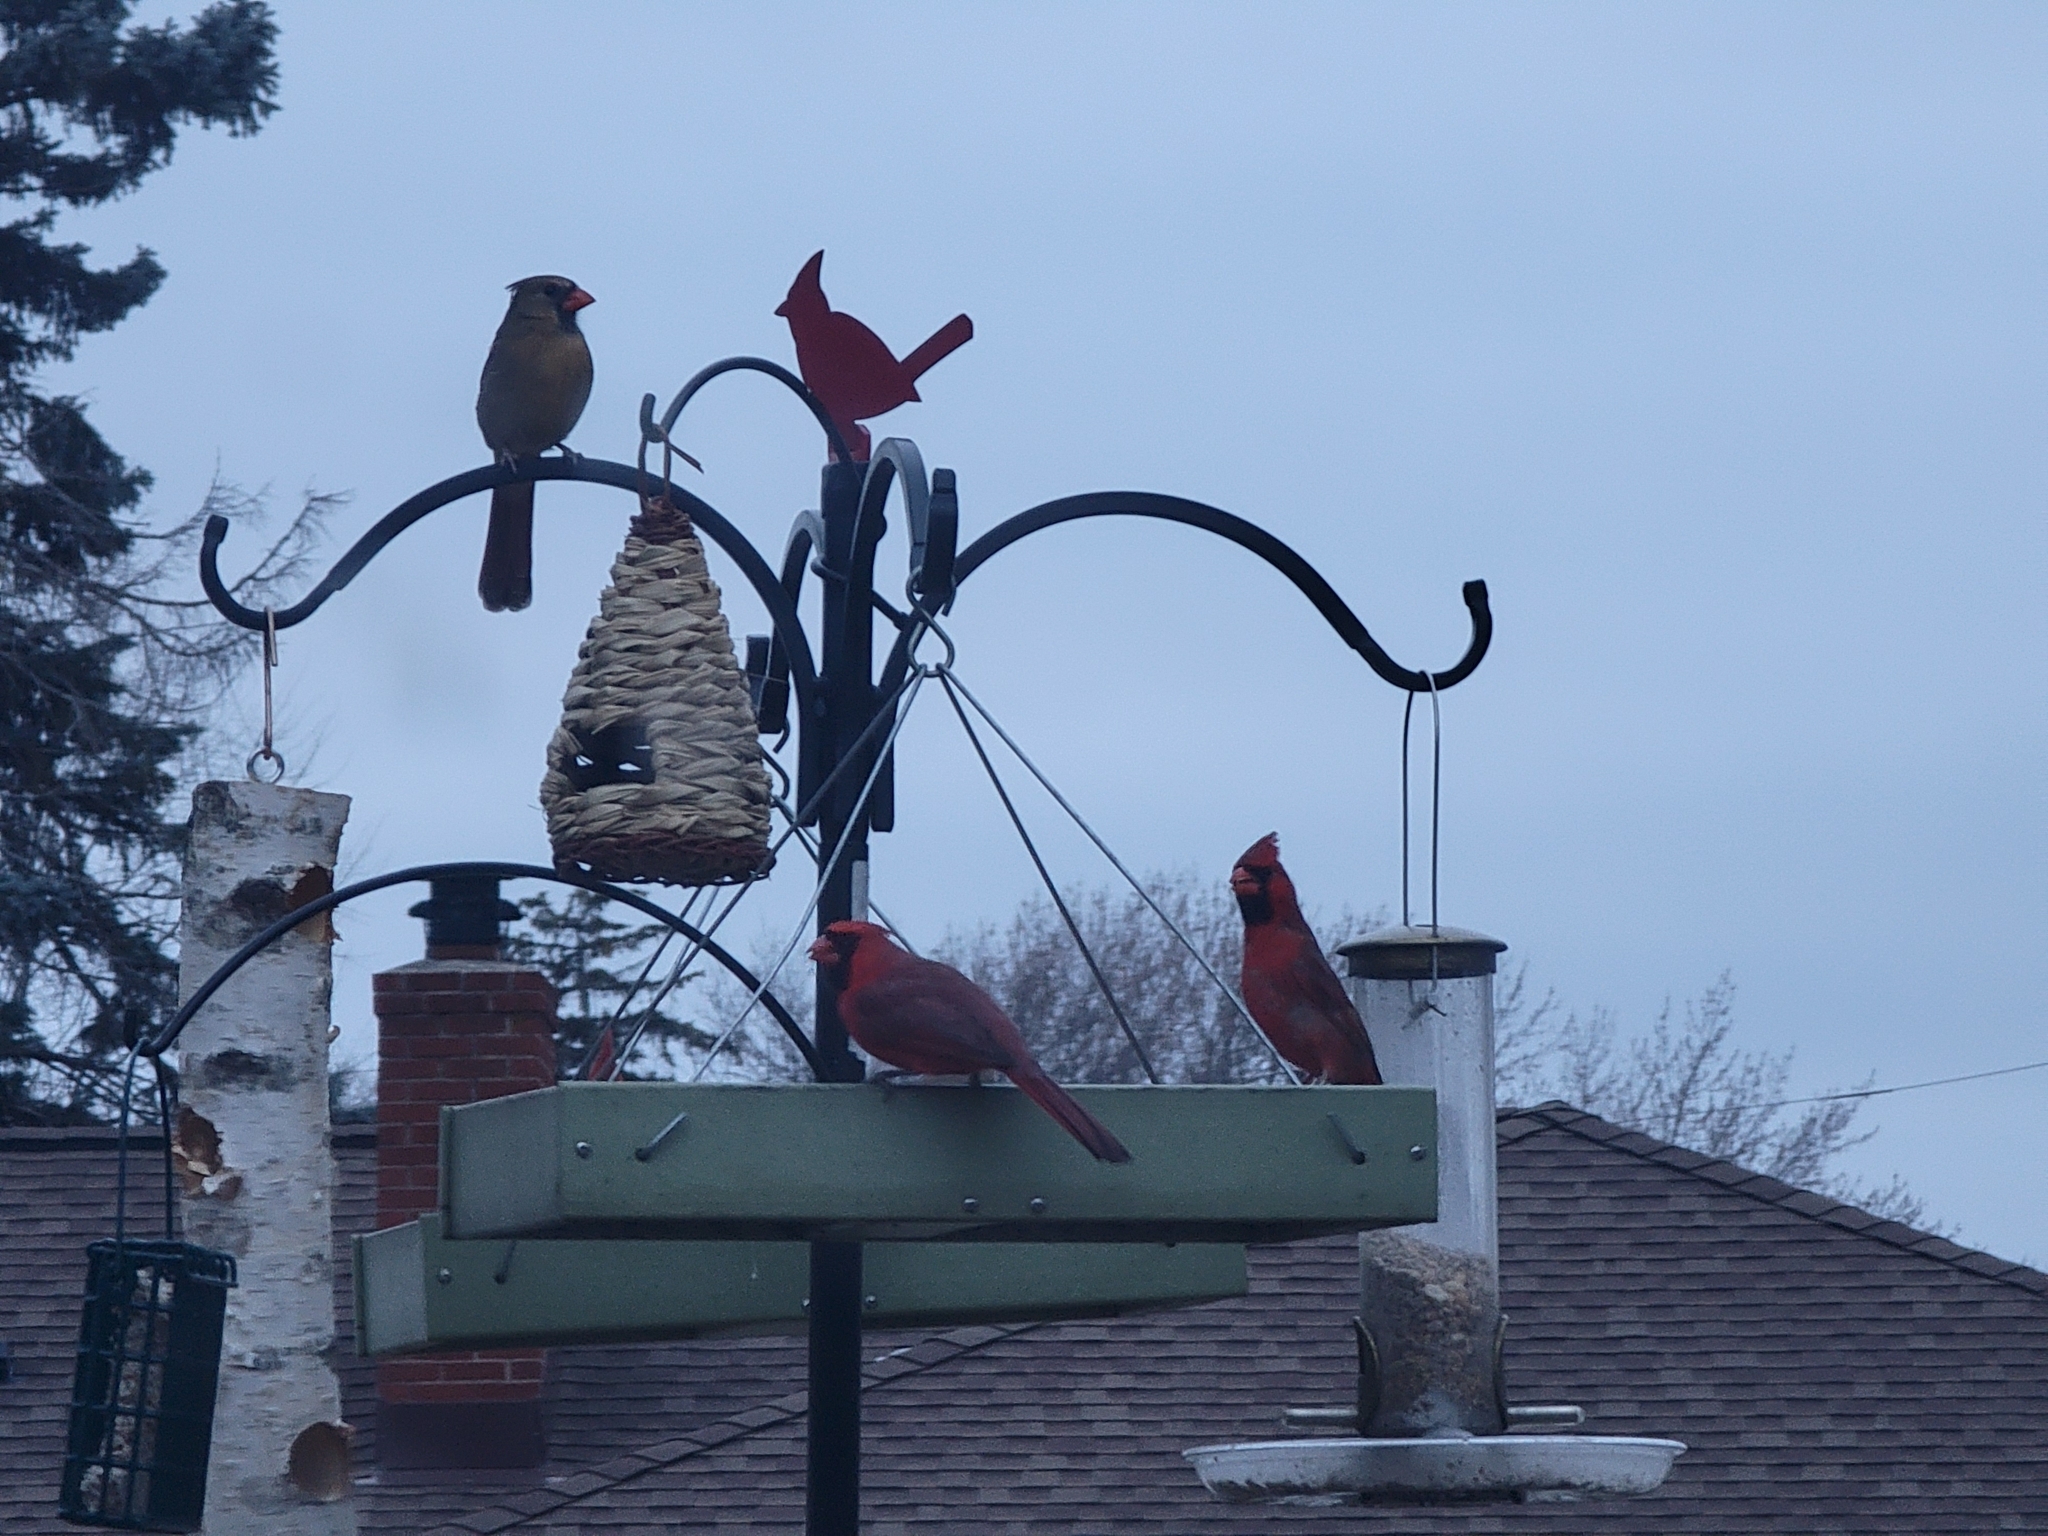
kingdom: Animalia
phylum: Chordata
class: Aves
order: Passeriformes
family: Cardinalidae
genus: Cardinalis
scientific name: Cardinalis cardinalis
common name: Northern cardinal
